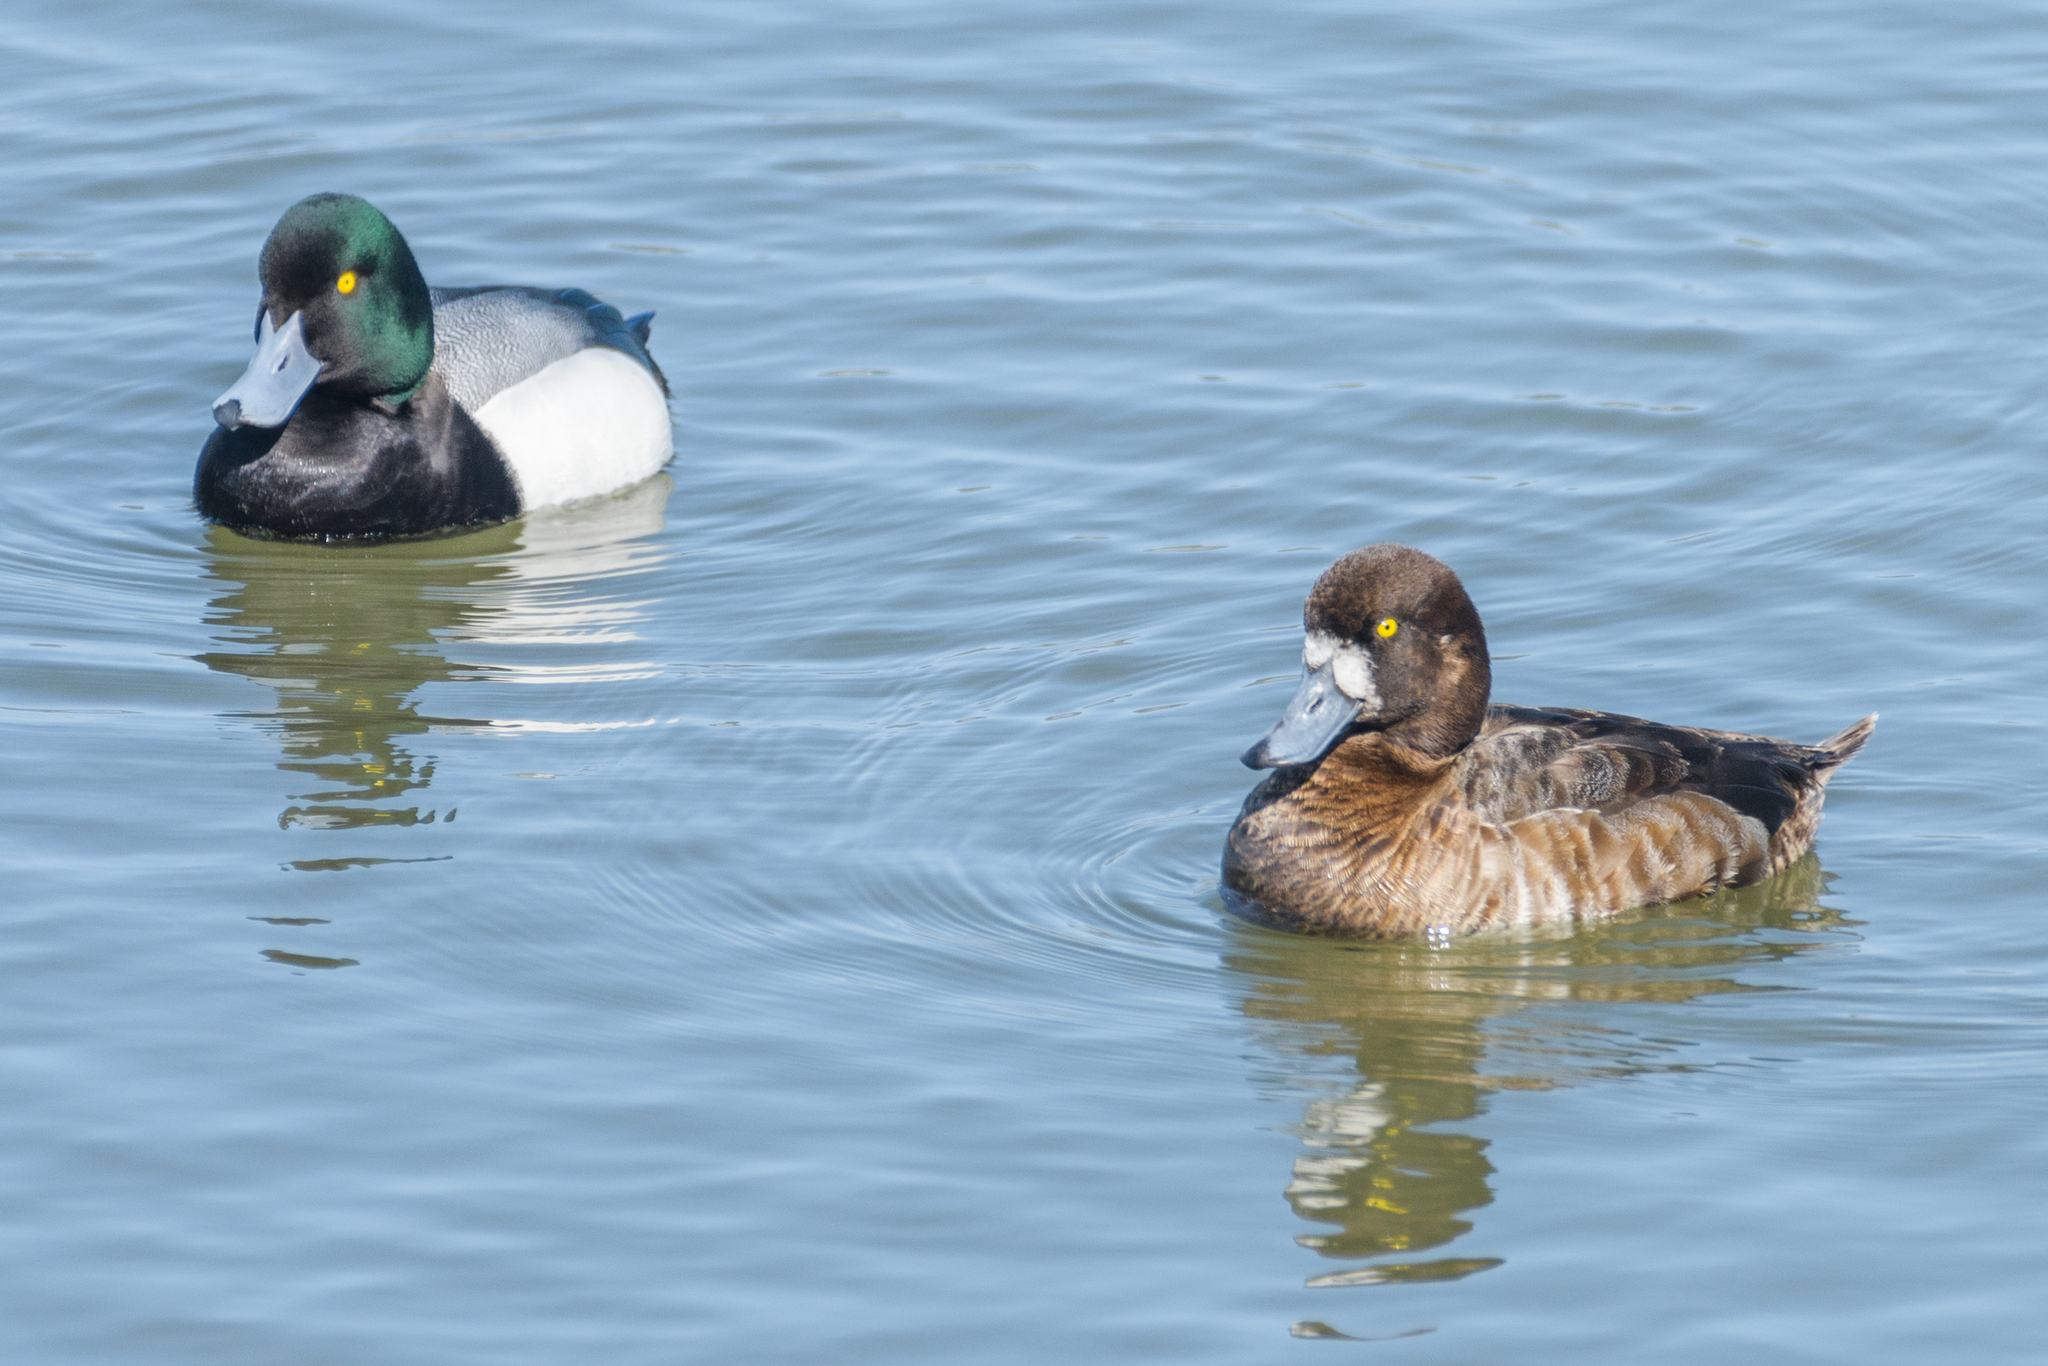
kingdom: Animalia
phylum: Chordata
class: Aves
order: Anseriformes
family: Anatidae
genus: Aythya
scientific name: Aythya marila
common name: Greater scaup
